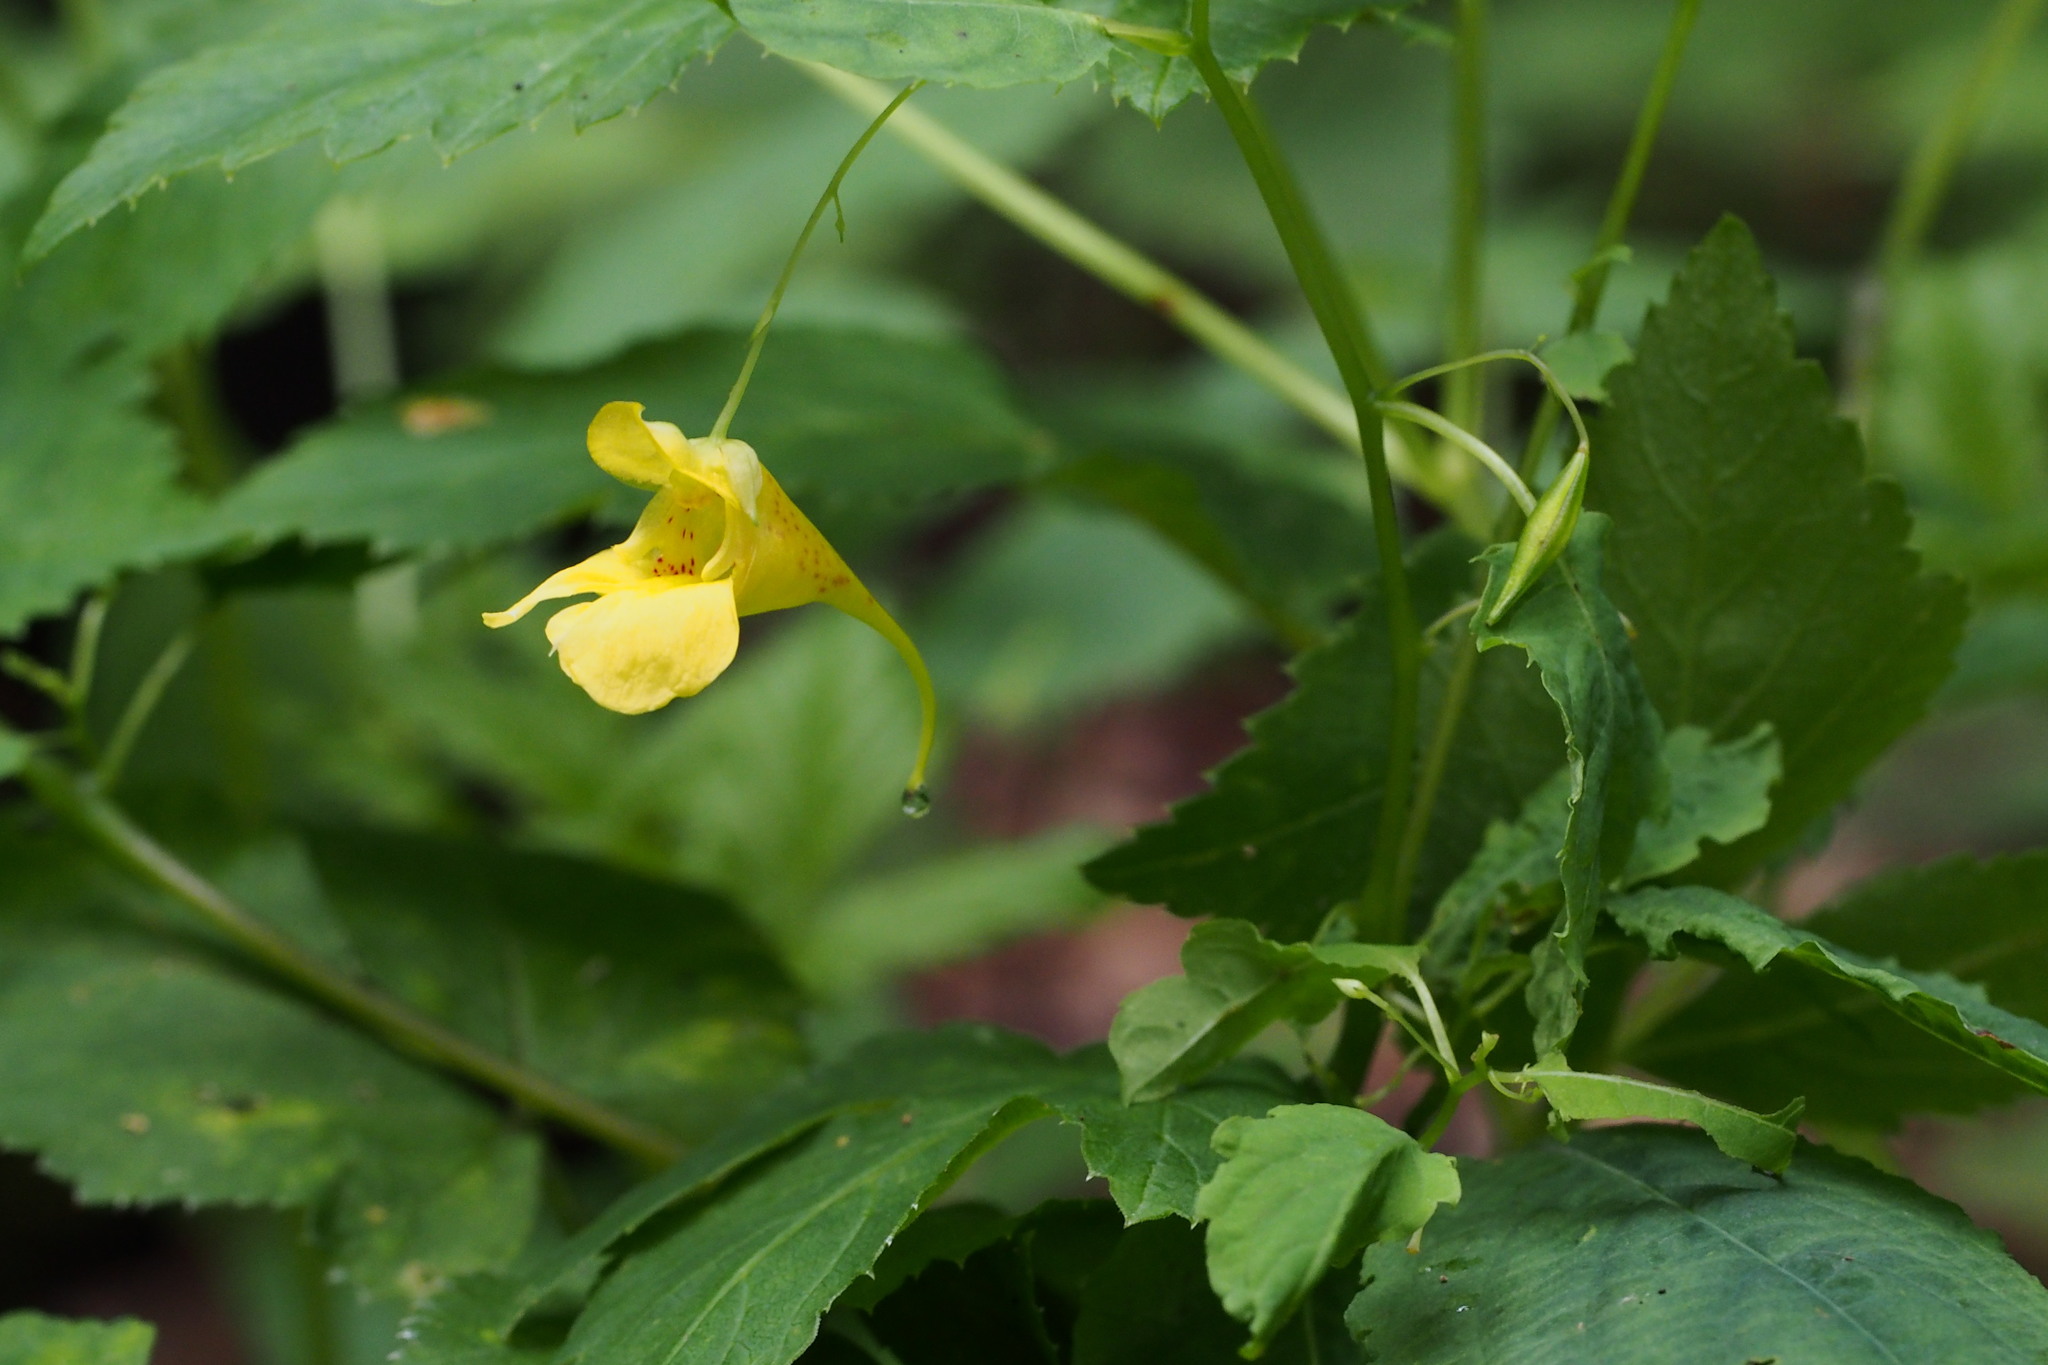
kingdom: Plantae
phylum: Tracheophyta
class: Magnoliopsida
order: Ericales
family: Balsaminaceae
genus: Impatiens
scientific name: Impatiens noli-tangere
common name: Touch-me-not balsam
